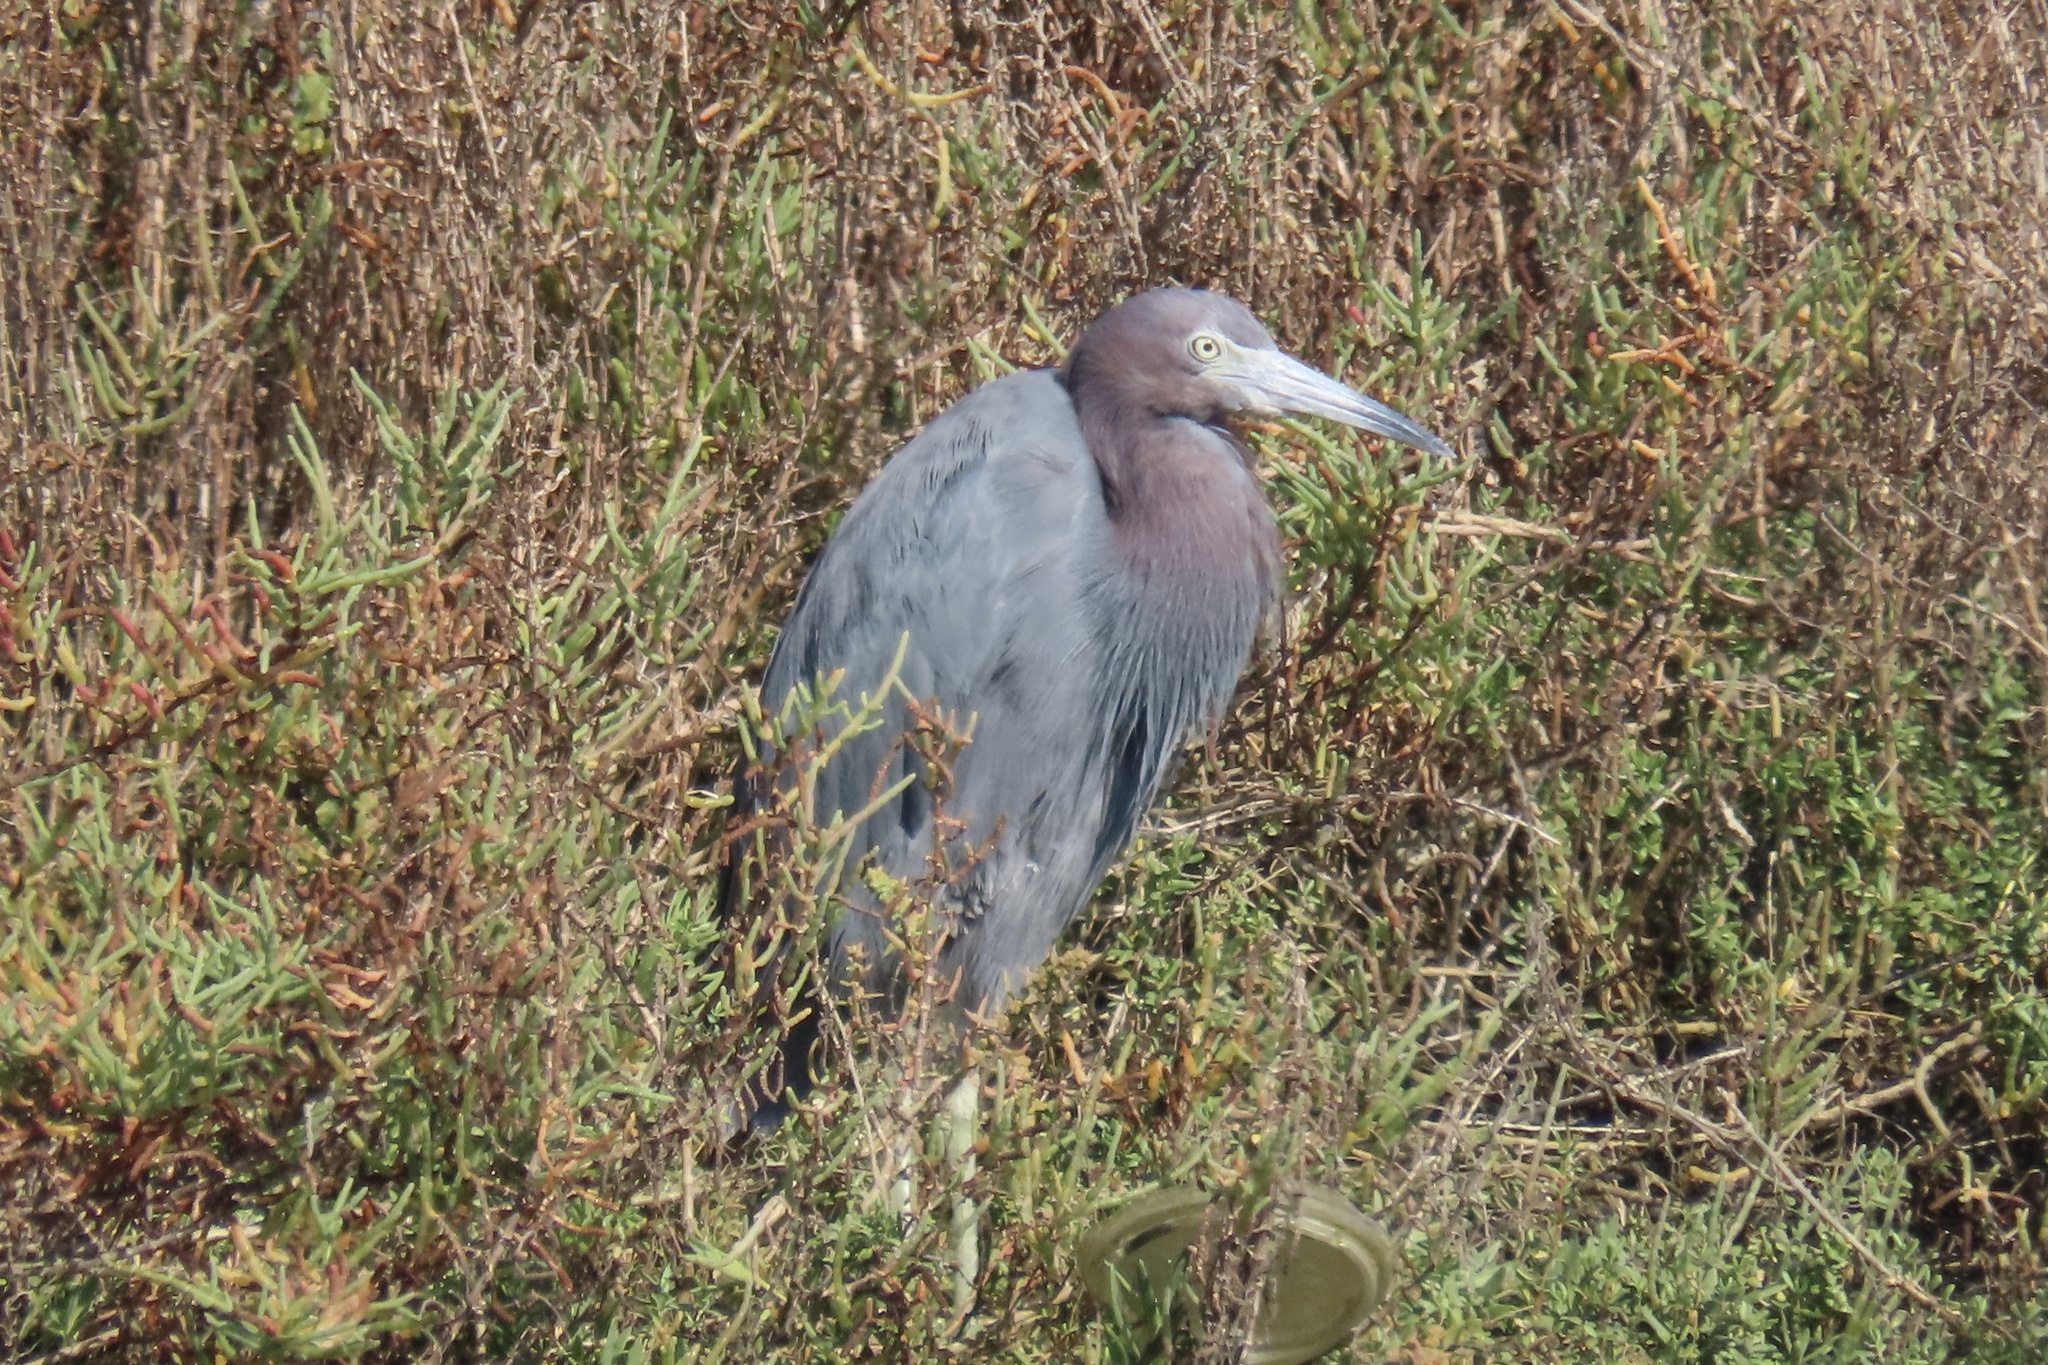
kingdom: Animalia
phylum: Chordata
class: Aves
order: Pelecaniformes
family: Ardeidae
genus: Egretta
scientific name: Egretta caerulea
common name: Little blue heron
